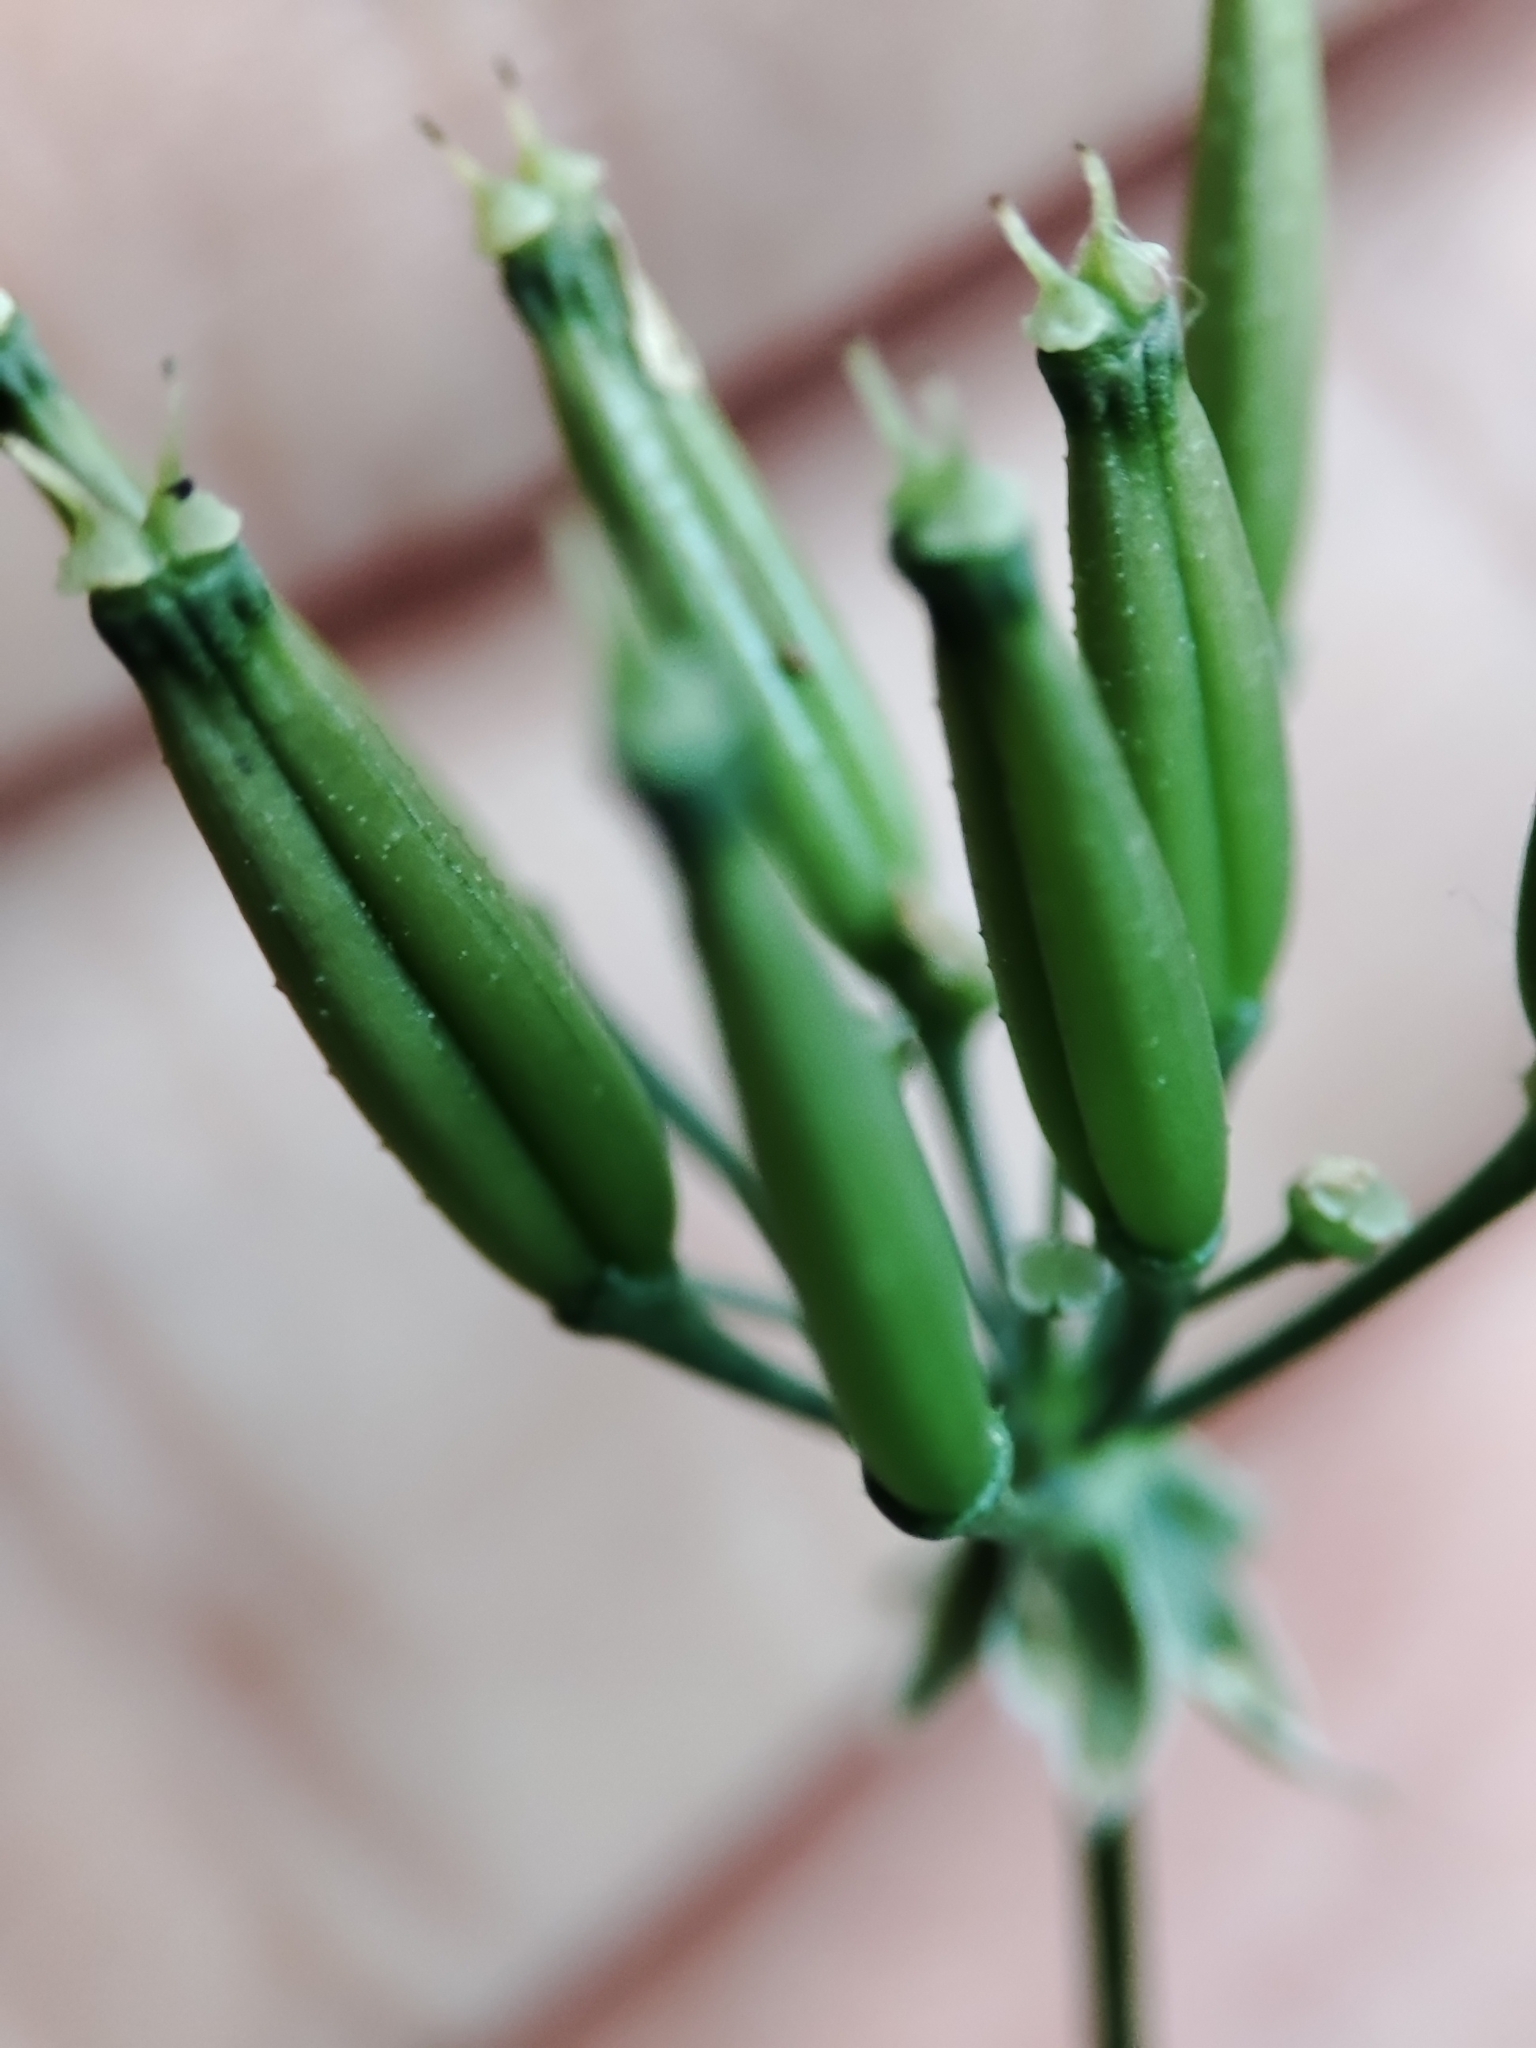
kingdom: Plantae
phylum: Tracheophyta
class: Magnoliopsida
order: Apiales
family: Apiaceae
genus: Anthriscus
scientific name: Anthriscus sylvestris
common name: Cow parsley
